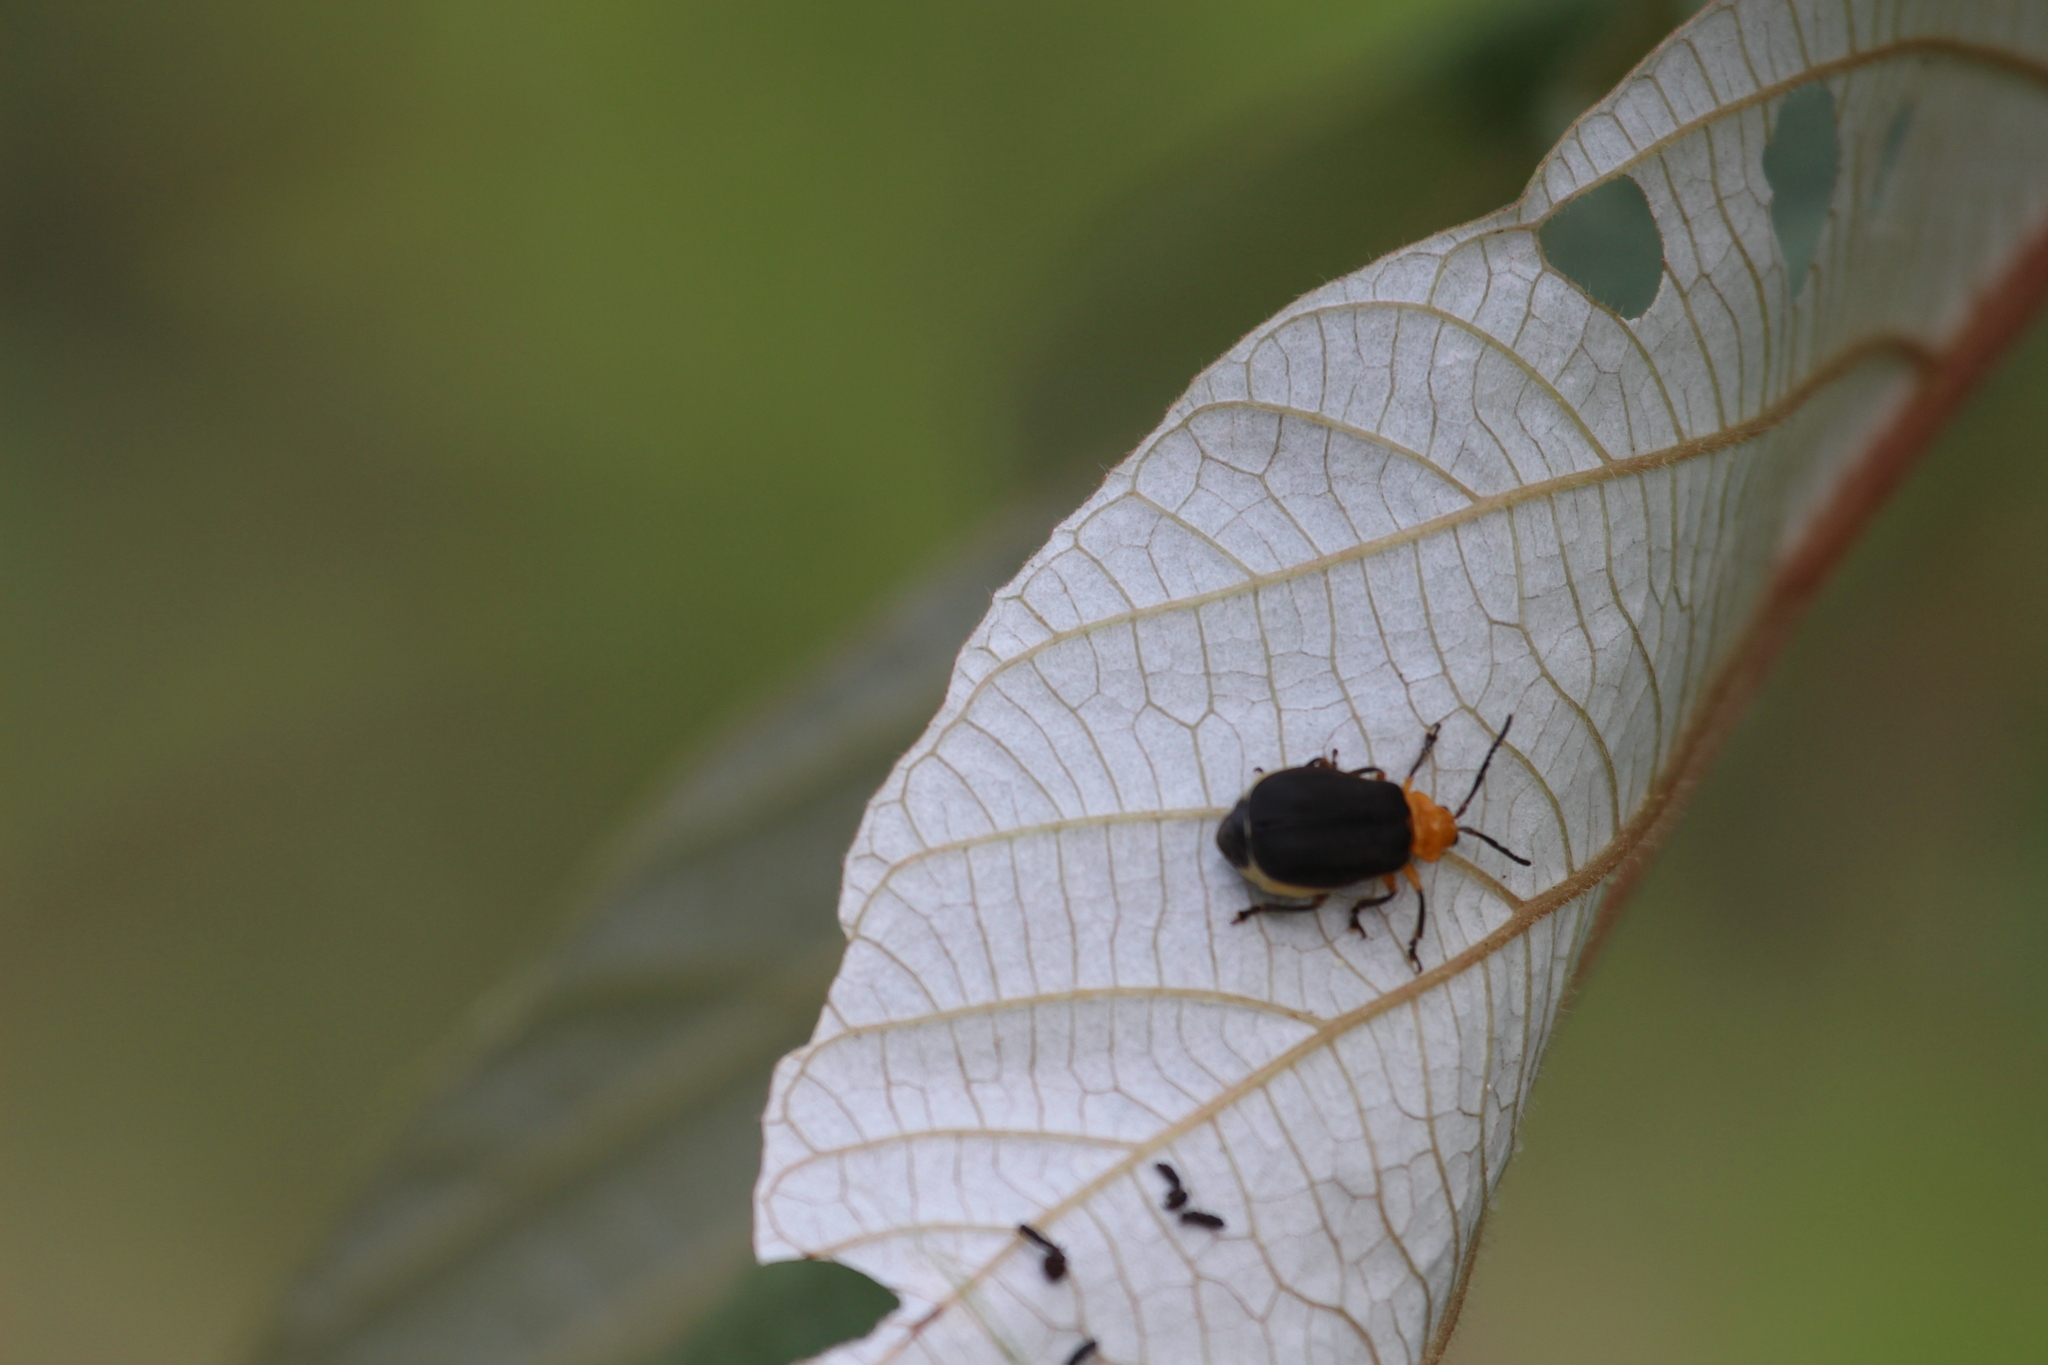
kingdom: Animalia
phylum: Arthropoda
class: Insecta
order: Coleoptera
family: Chrysomelidae
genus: Coelomera
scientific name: Coelomera cajennensis
